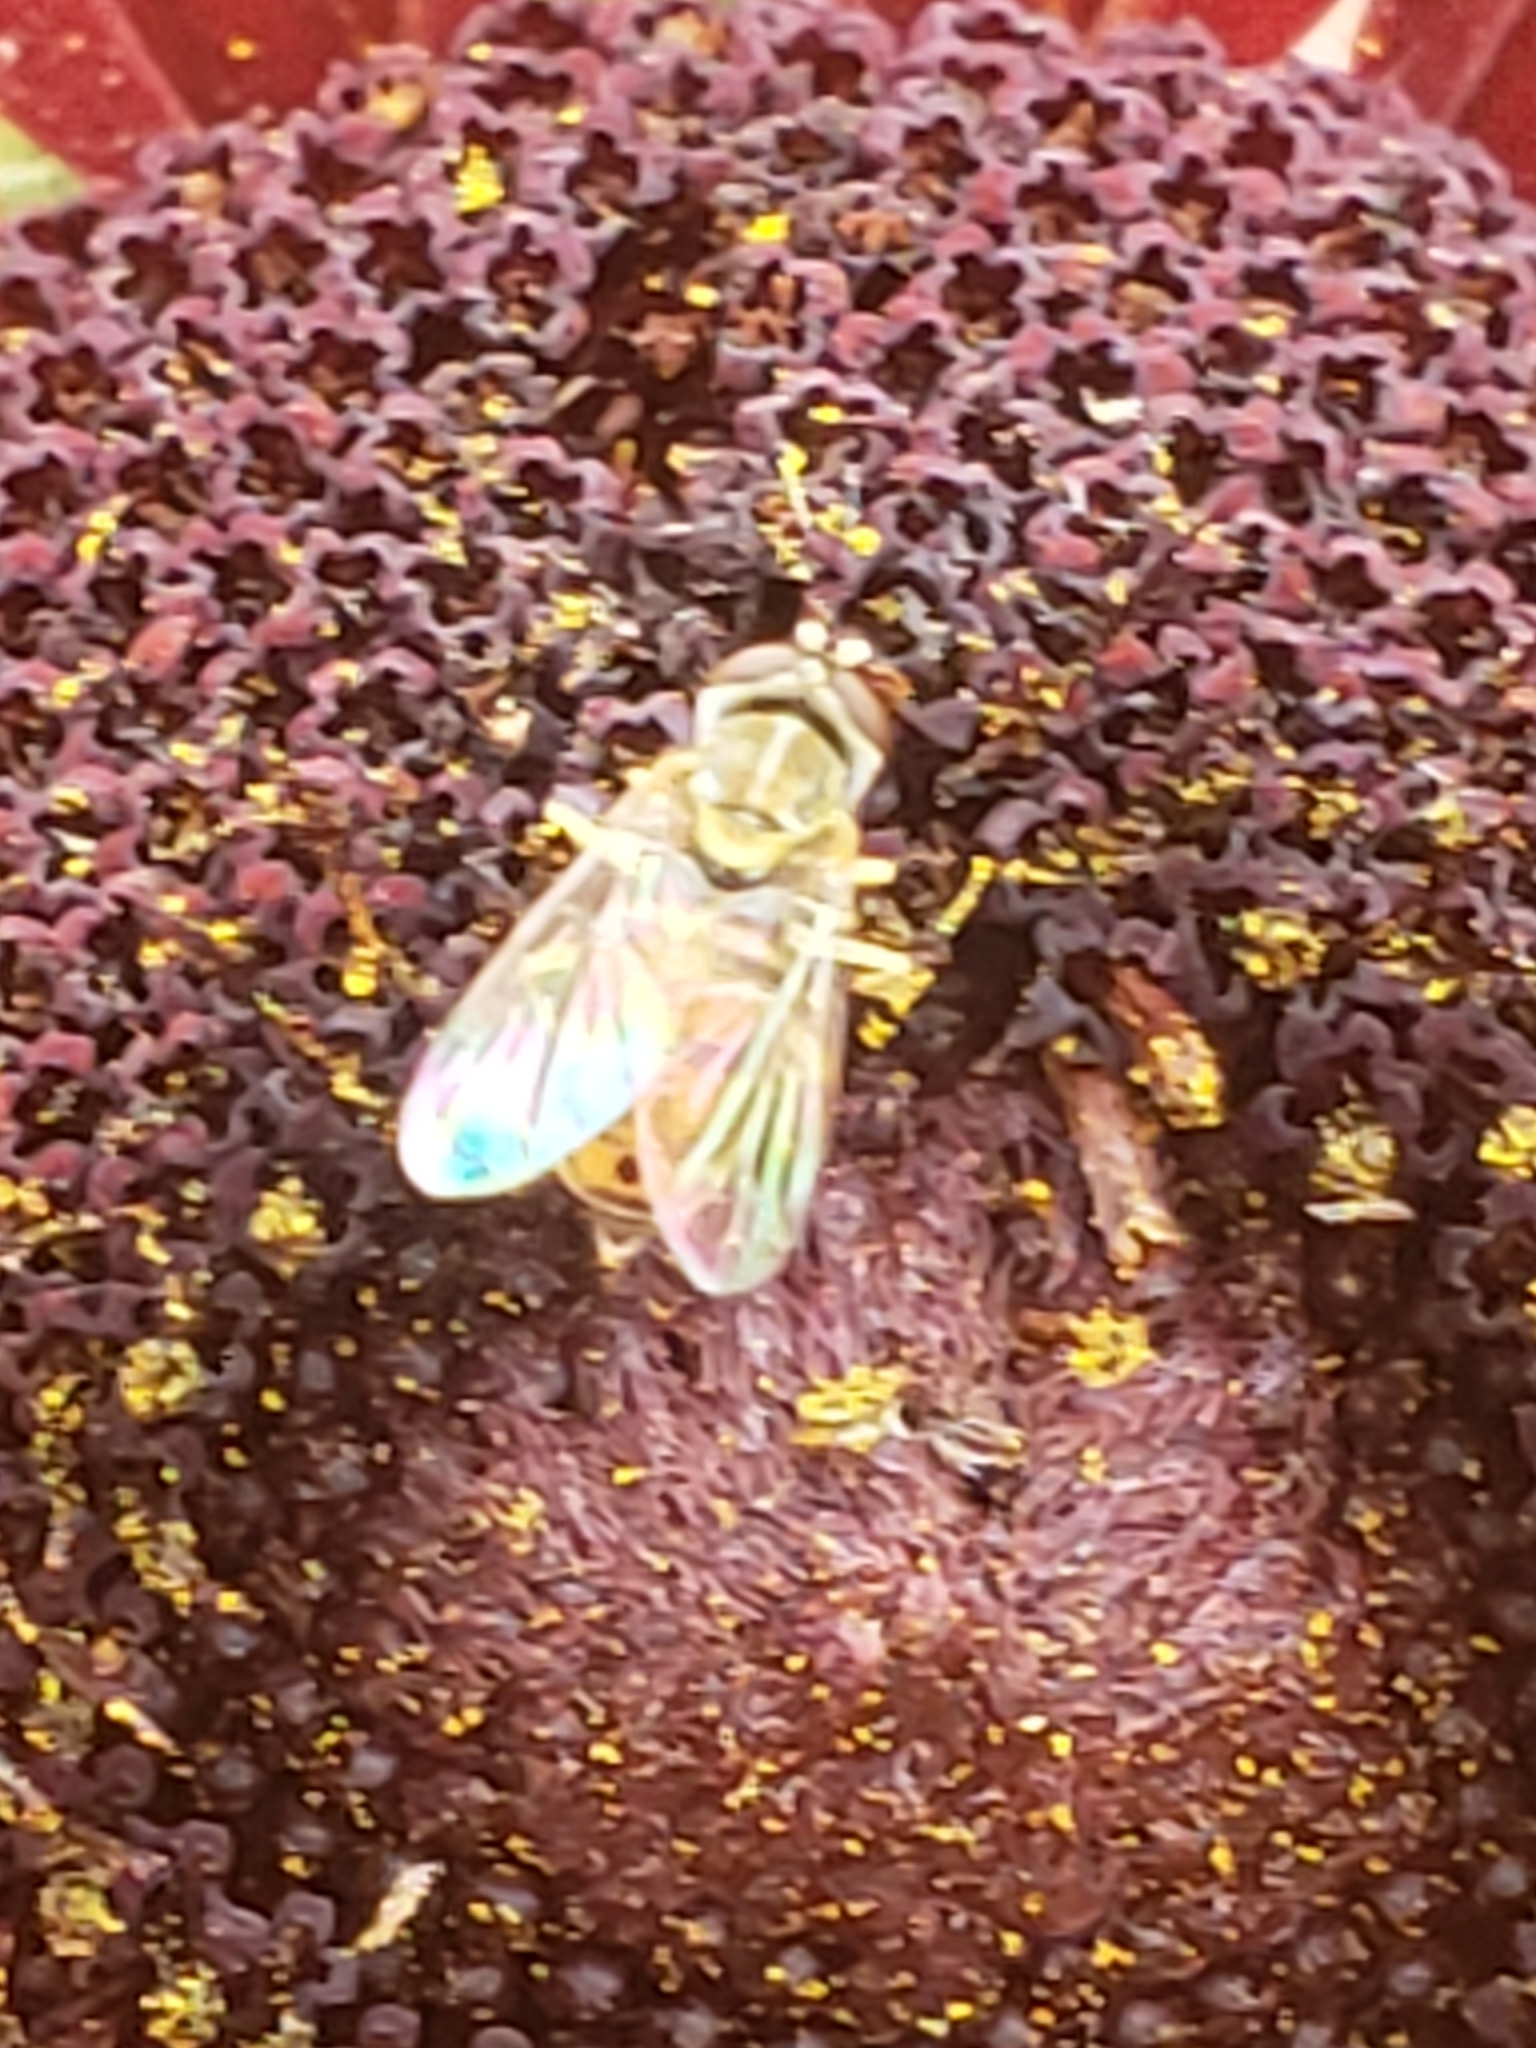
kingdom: Animalia
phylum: Arthropoda
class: Insecta
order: Diptera
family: Syrphidae
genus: Toxomerus
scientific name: Toxomerus marginatus
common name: Syrphid fly
